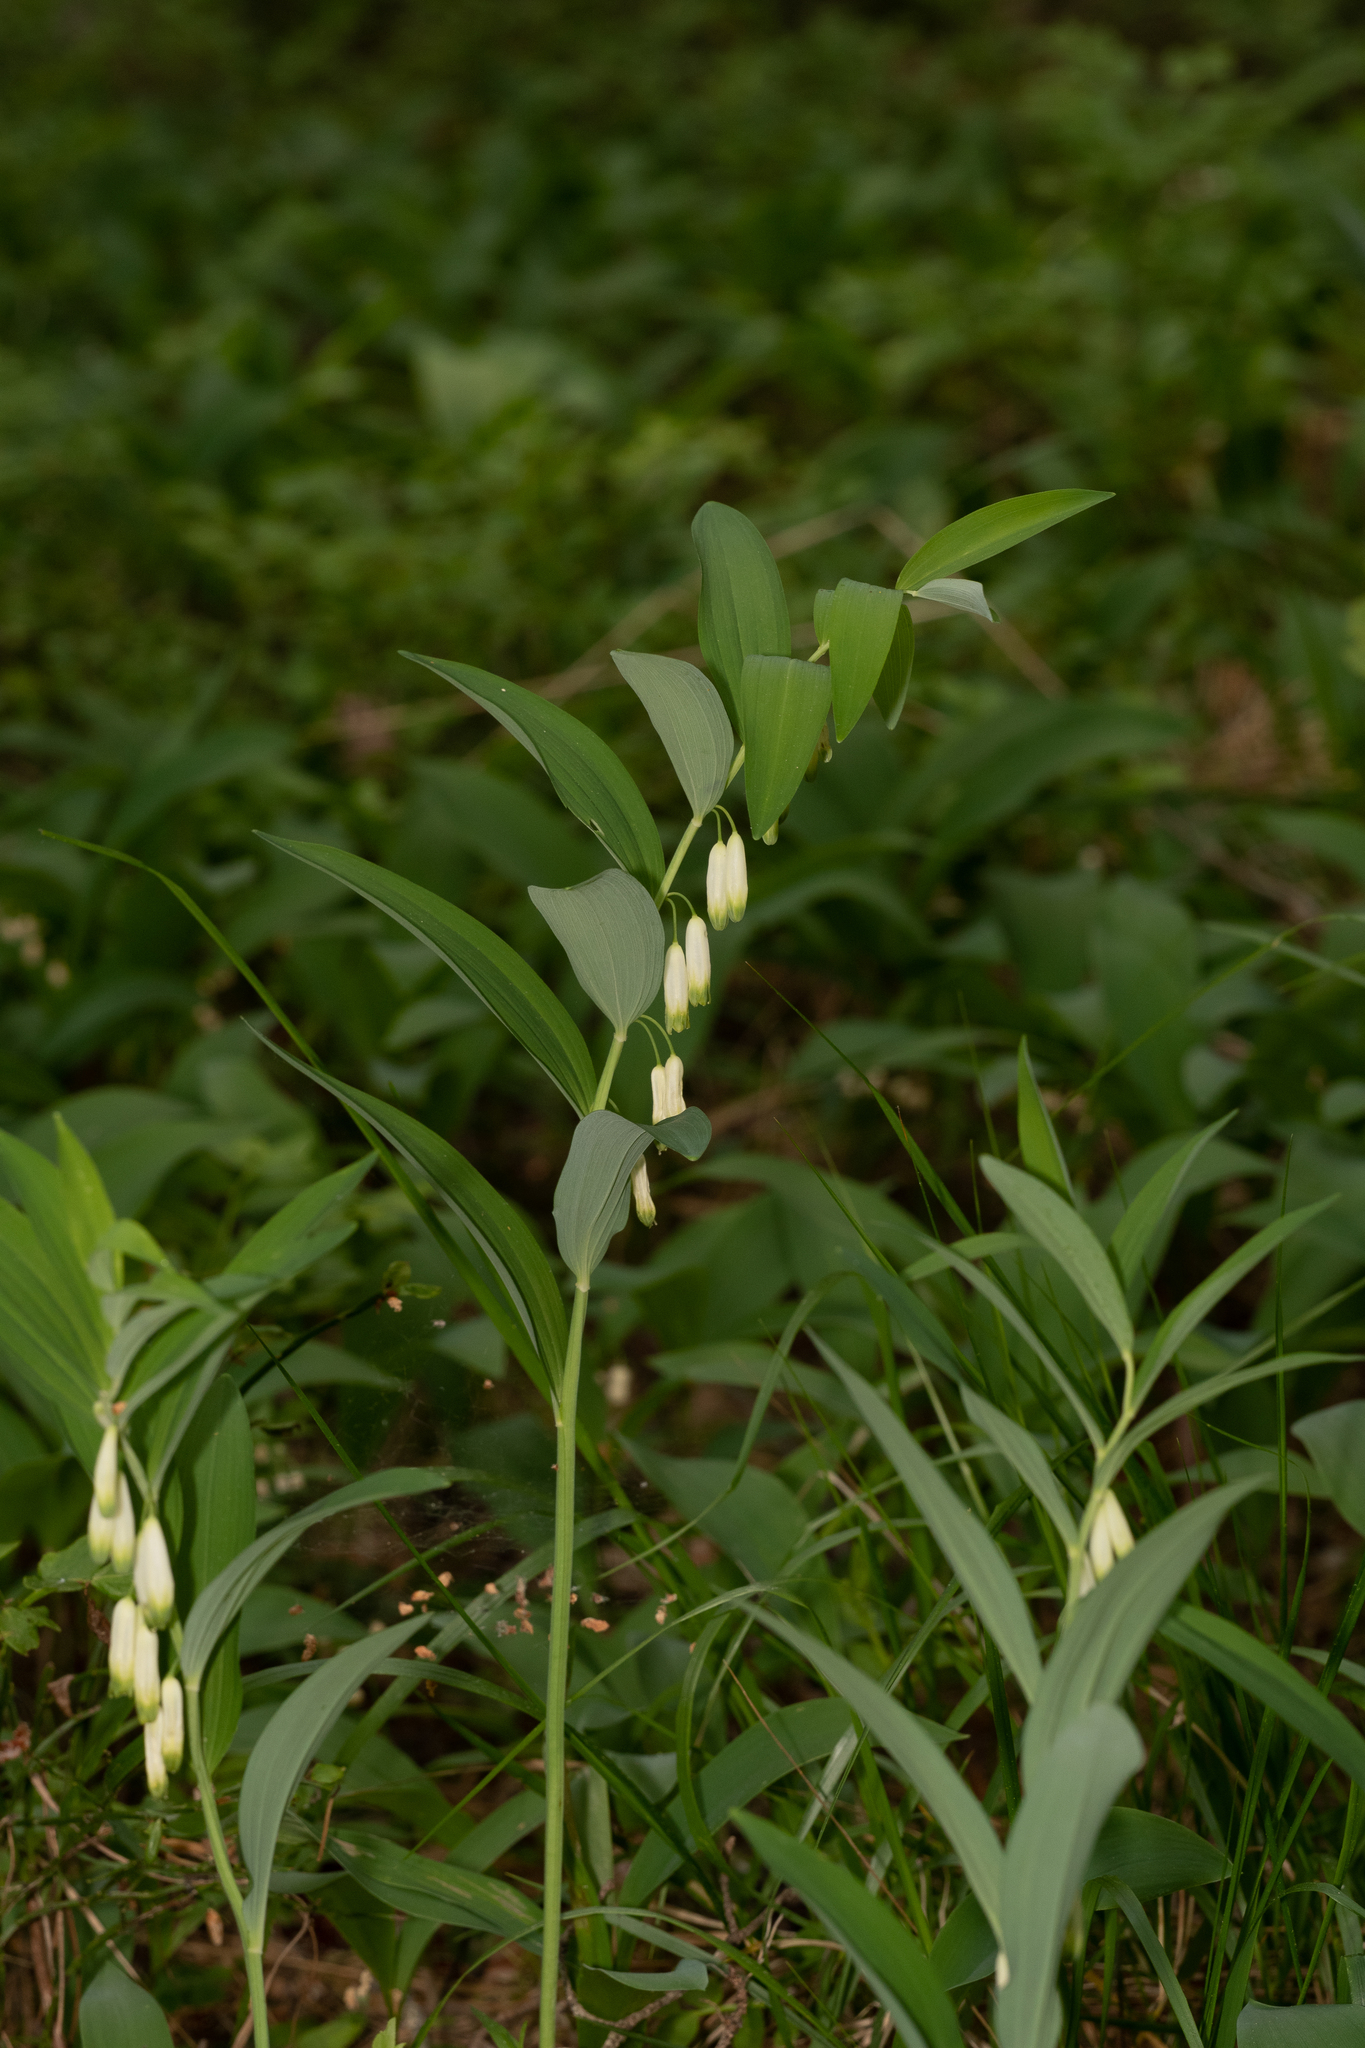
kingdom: Plantae
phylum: Tracheophyta
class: Liliopsida
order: Asparagales
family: Asparagaceae
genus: Polygonatum
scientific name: Polygonatum multiflorum
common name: Solomon's-seal
